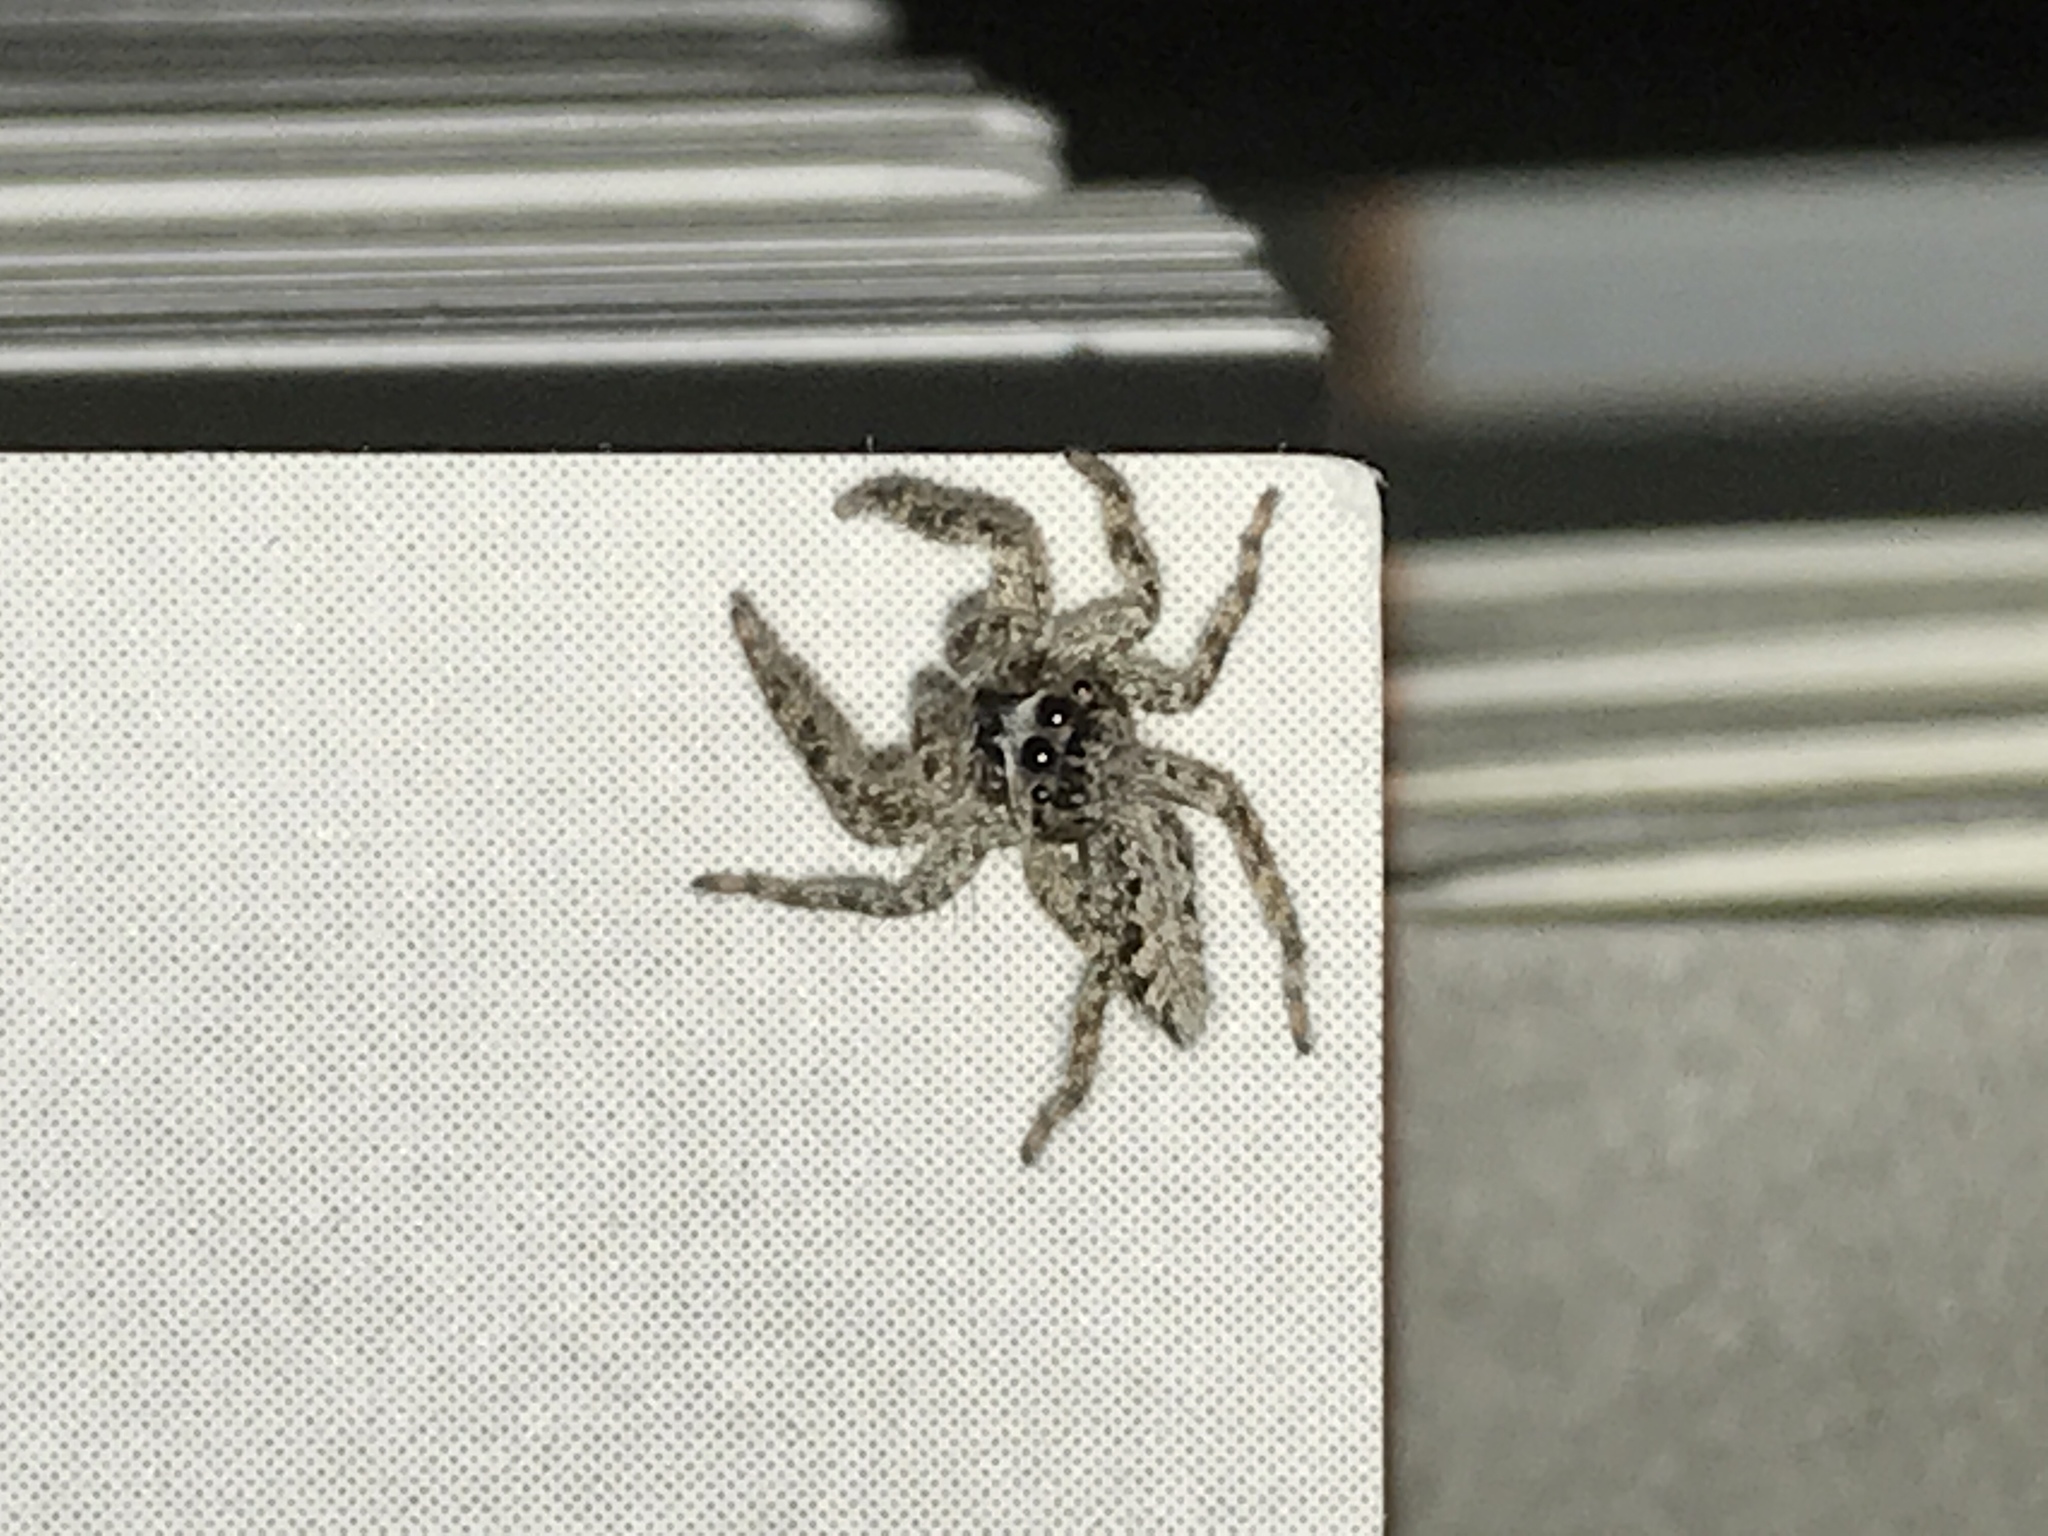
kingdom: Animalia
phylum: Arthropoda
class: Arachnida
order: Araneae
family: Salticidae
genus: Platycryptus
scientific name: Platycryptus californicus
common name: Jumping spiders
